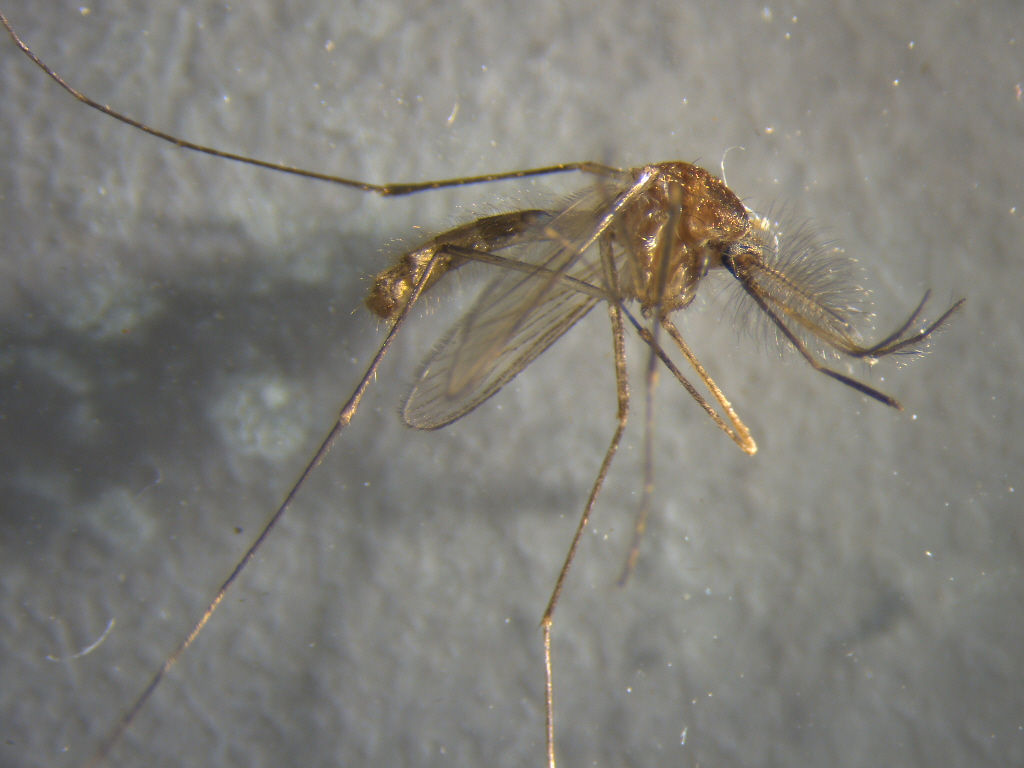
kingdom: Animalia
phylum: Arthropoda
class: Insecta
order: Diptera
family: Culicidae
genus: Culex
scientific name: Culex quinquefasciatus
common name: Southern house mosquito
